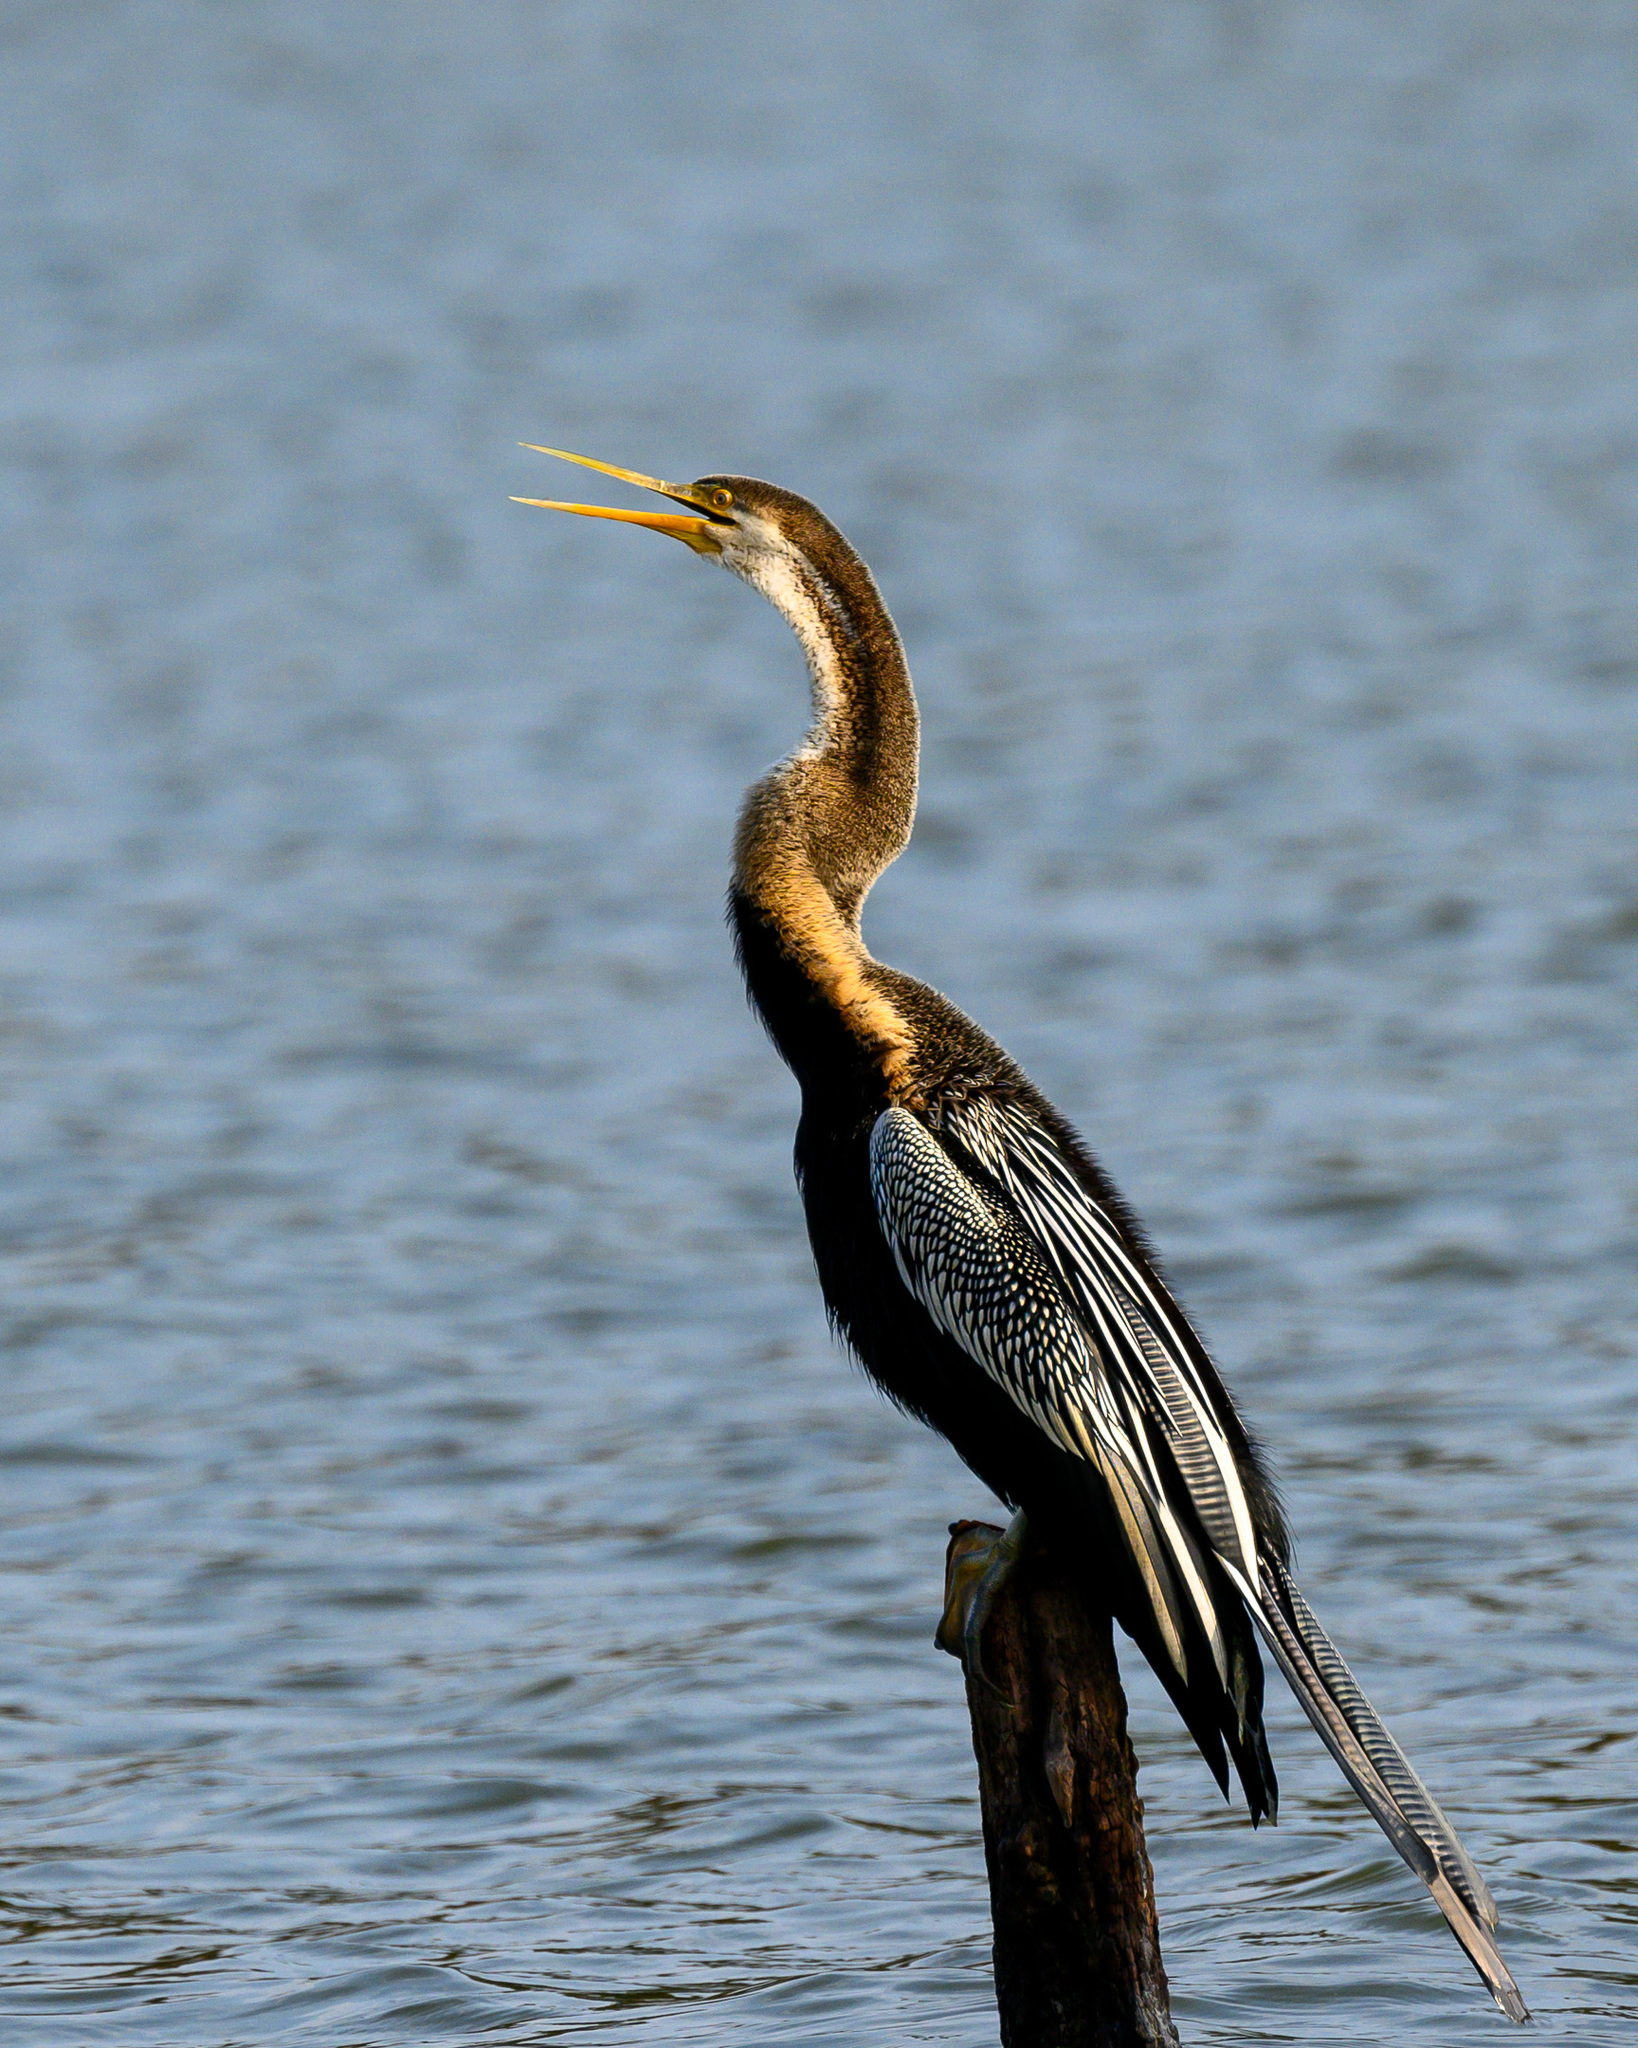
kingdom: Animalia
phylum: Chordata
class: Aves
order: Suliformes
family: Anhingidae
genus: Anhinga
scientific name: Anhinga melanogaster
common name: Oriental darter
